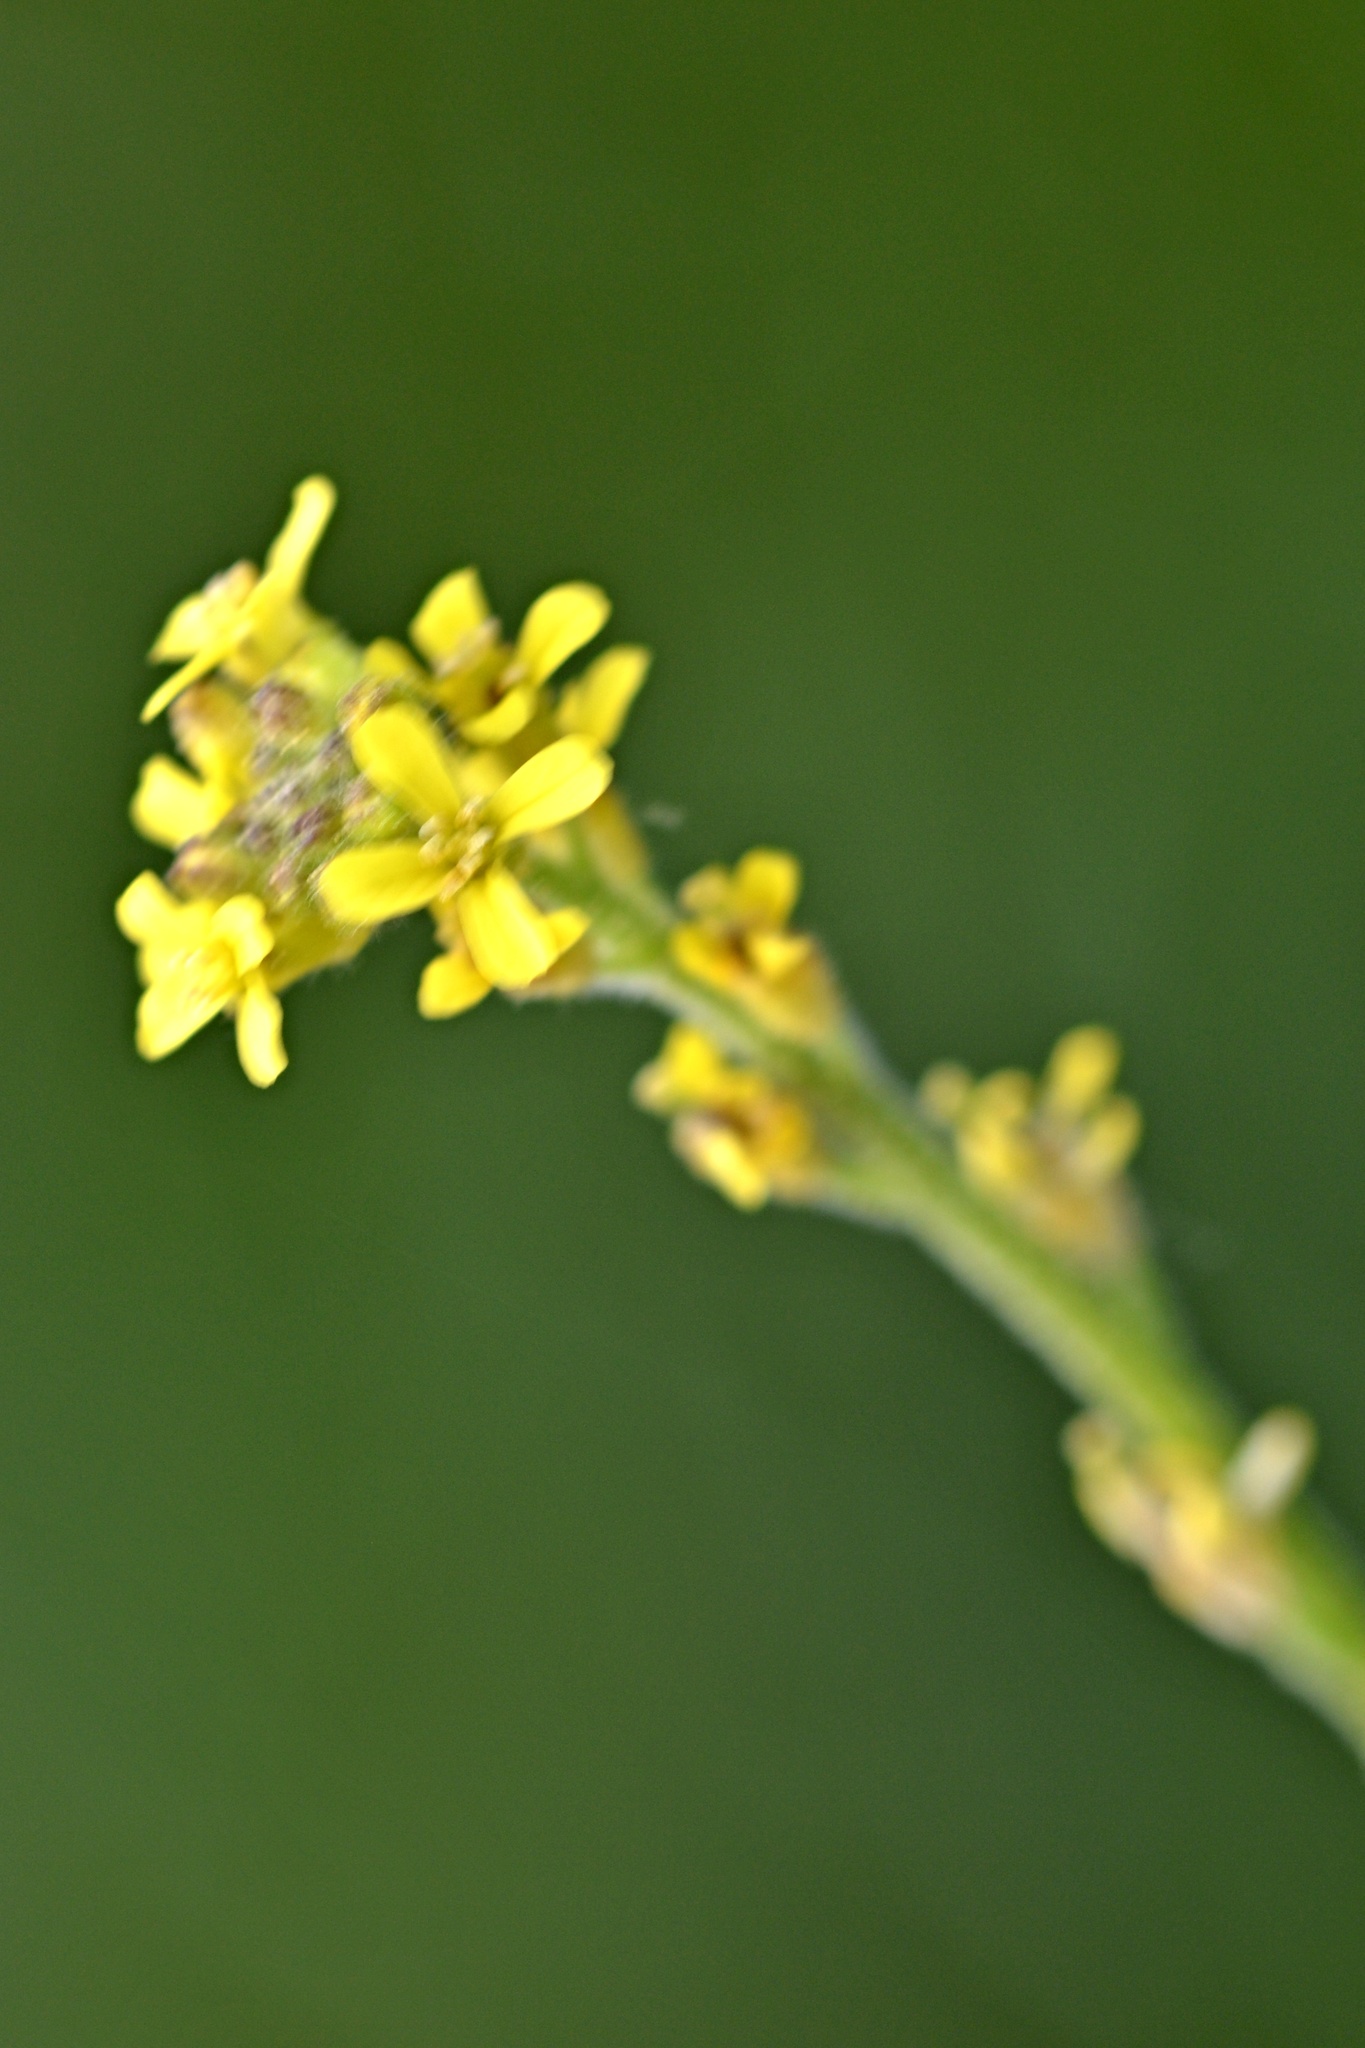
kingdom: Plantae
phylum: Tracheophyta
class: Magnoliopsida
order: Brassicales
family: Brassicaceae
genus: Sisymbrium
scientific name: Sisymbrium officinale
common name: Hedge mustard
